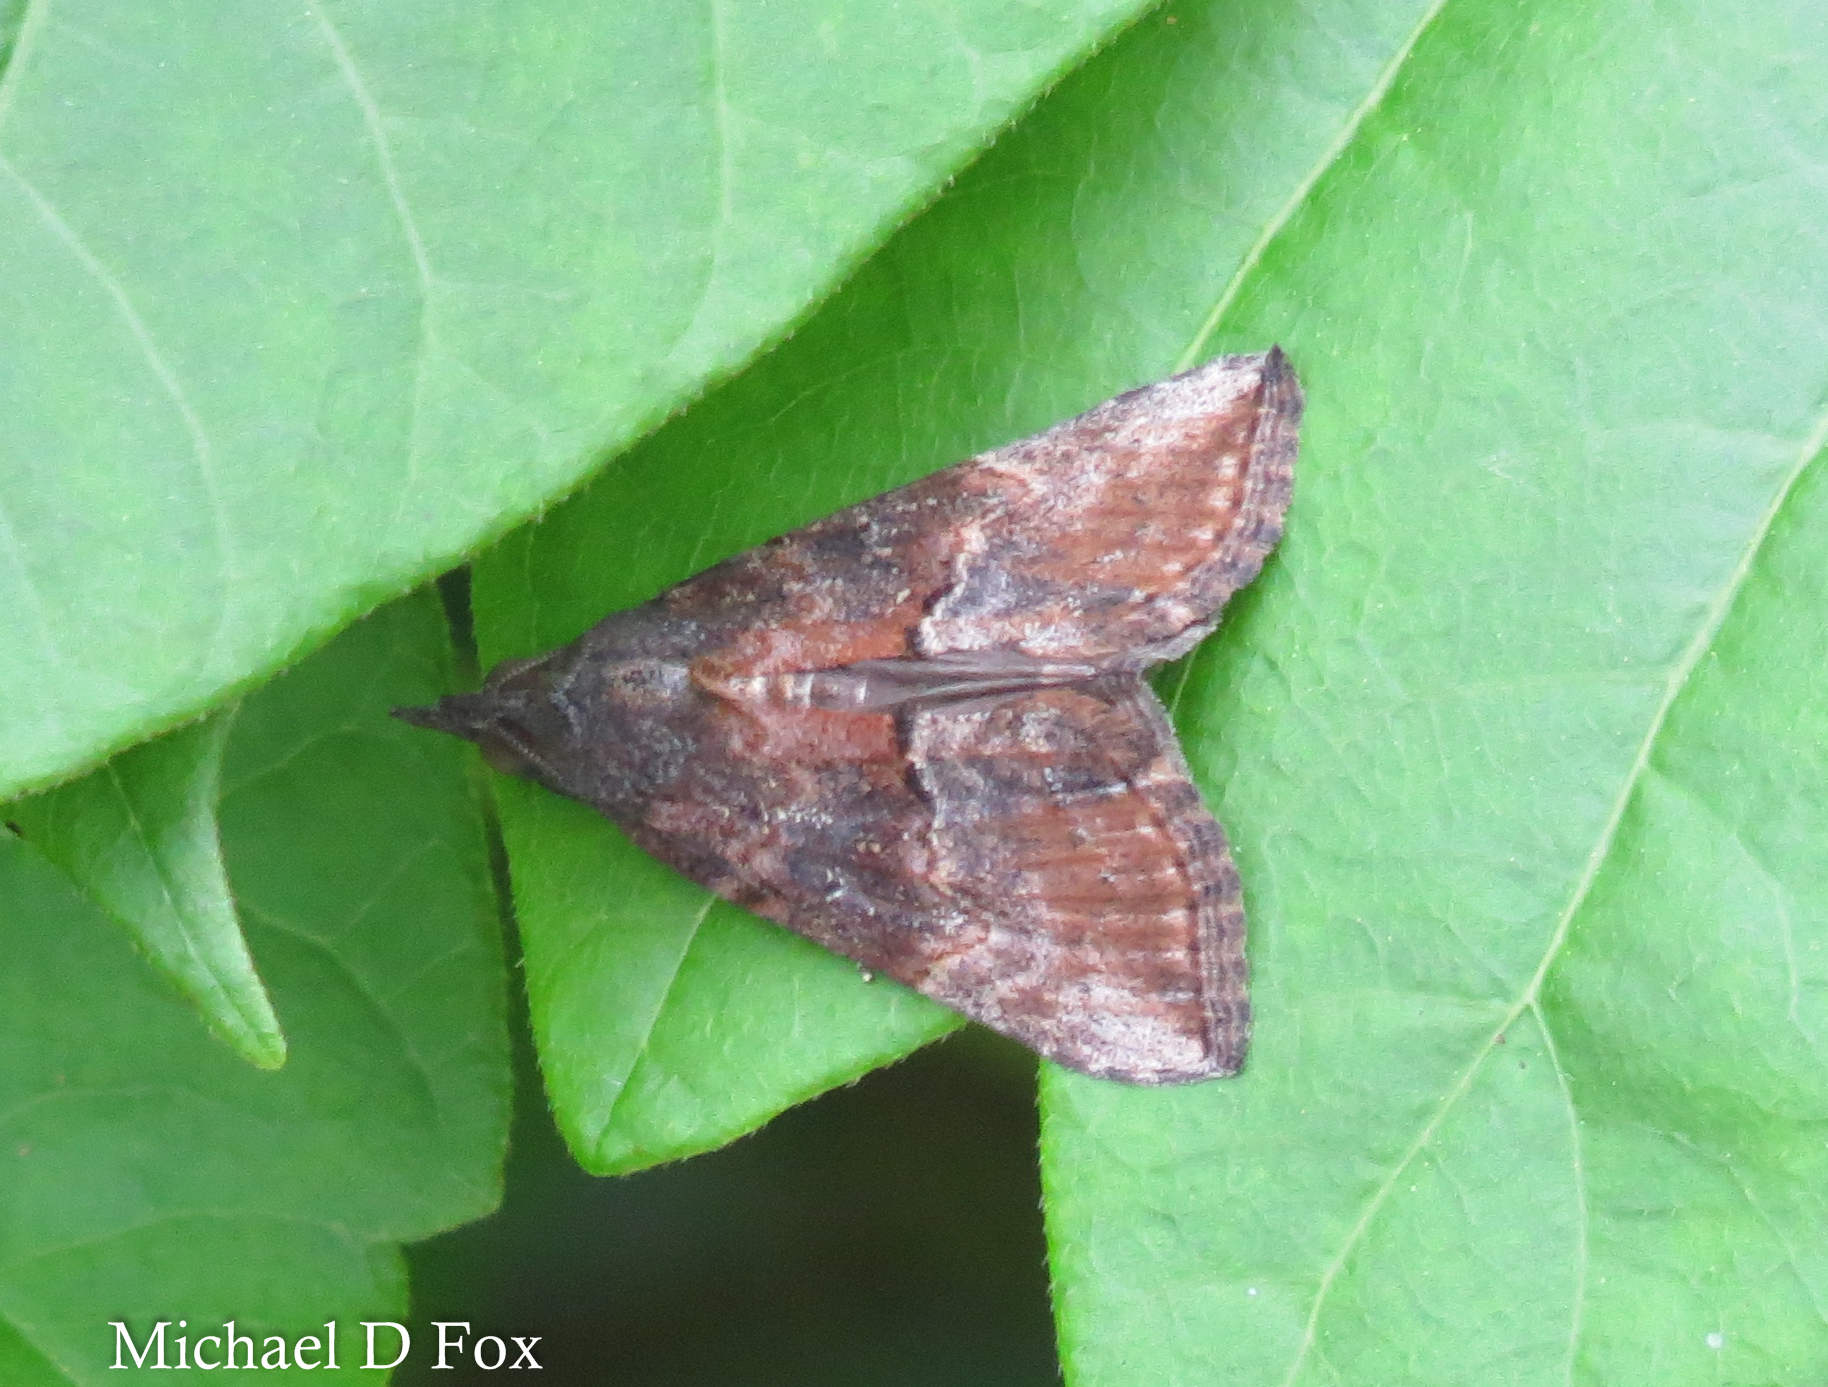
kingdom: Animalia
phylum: Arthropoda
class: Insecta
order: Lepidoptera
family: Erebidae
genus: Hypena
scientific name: Hypena scabra
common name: Green cloverworm
